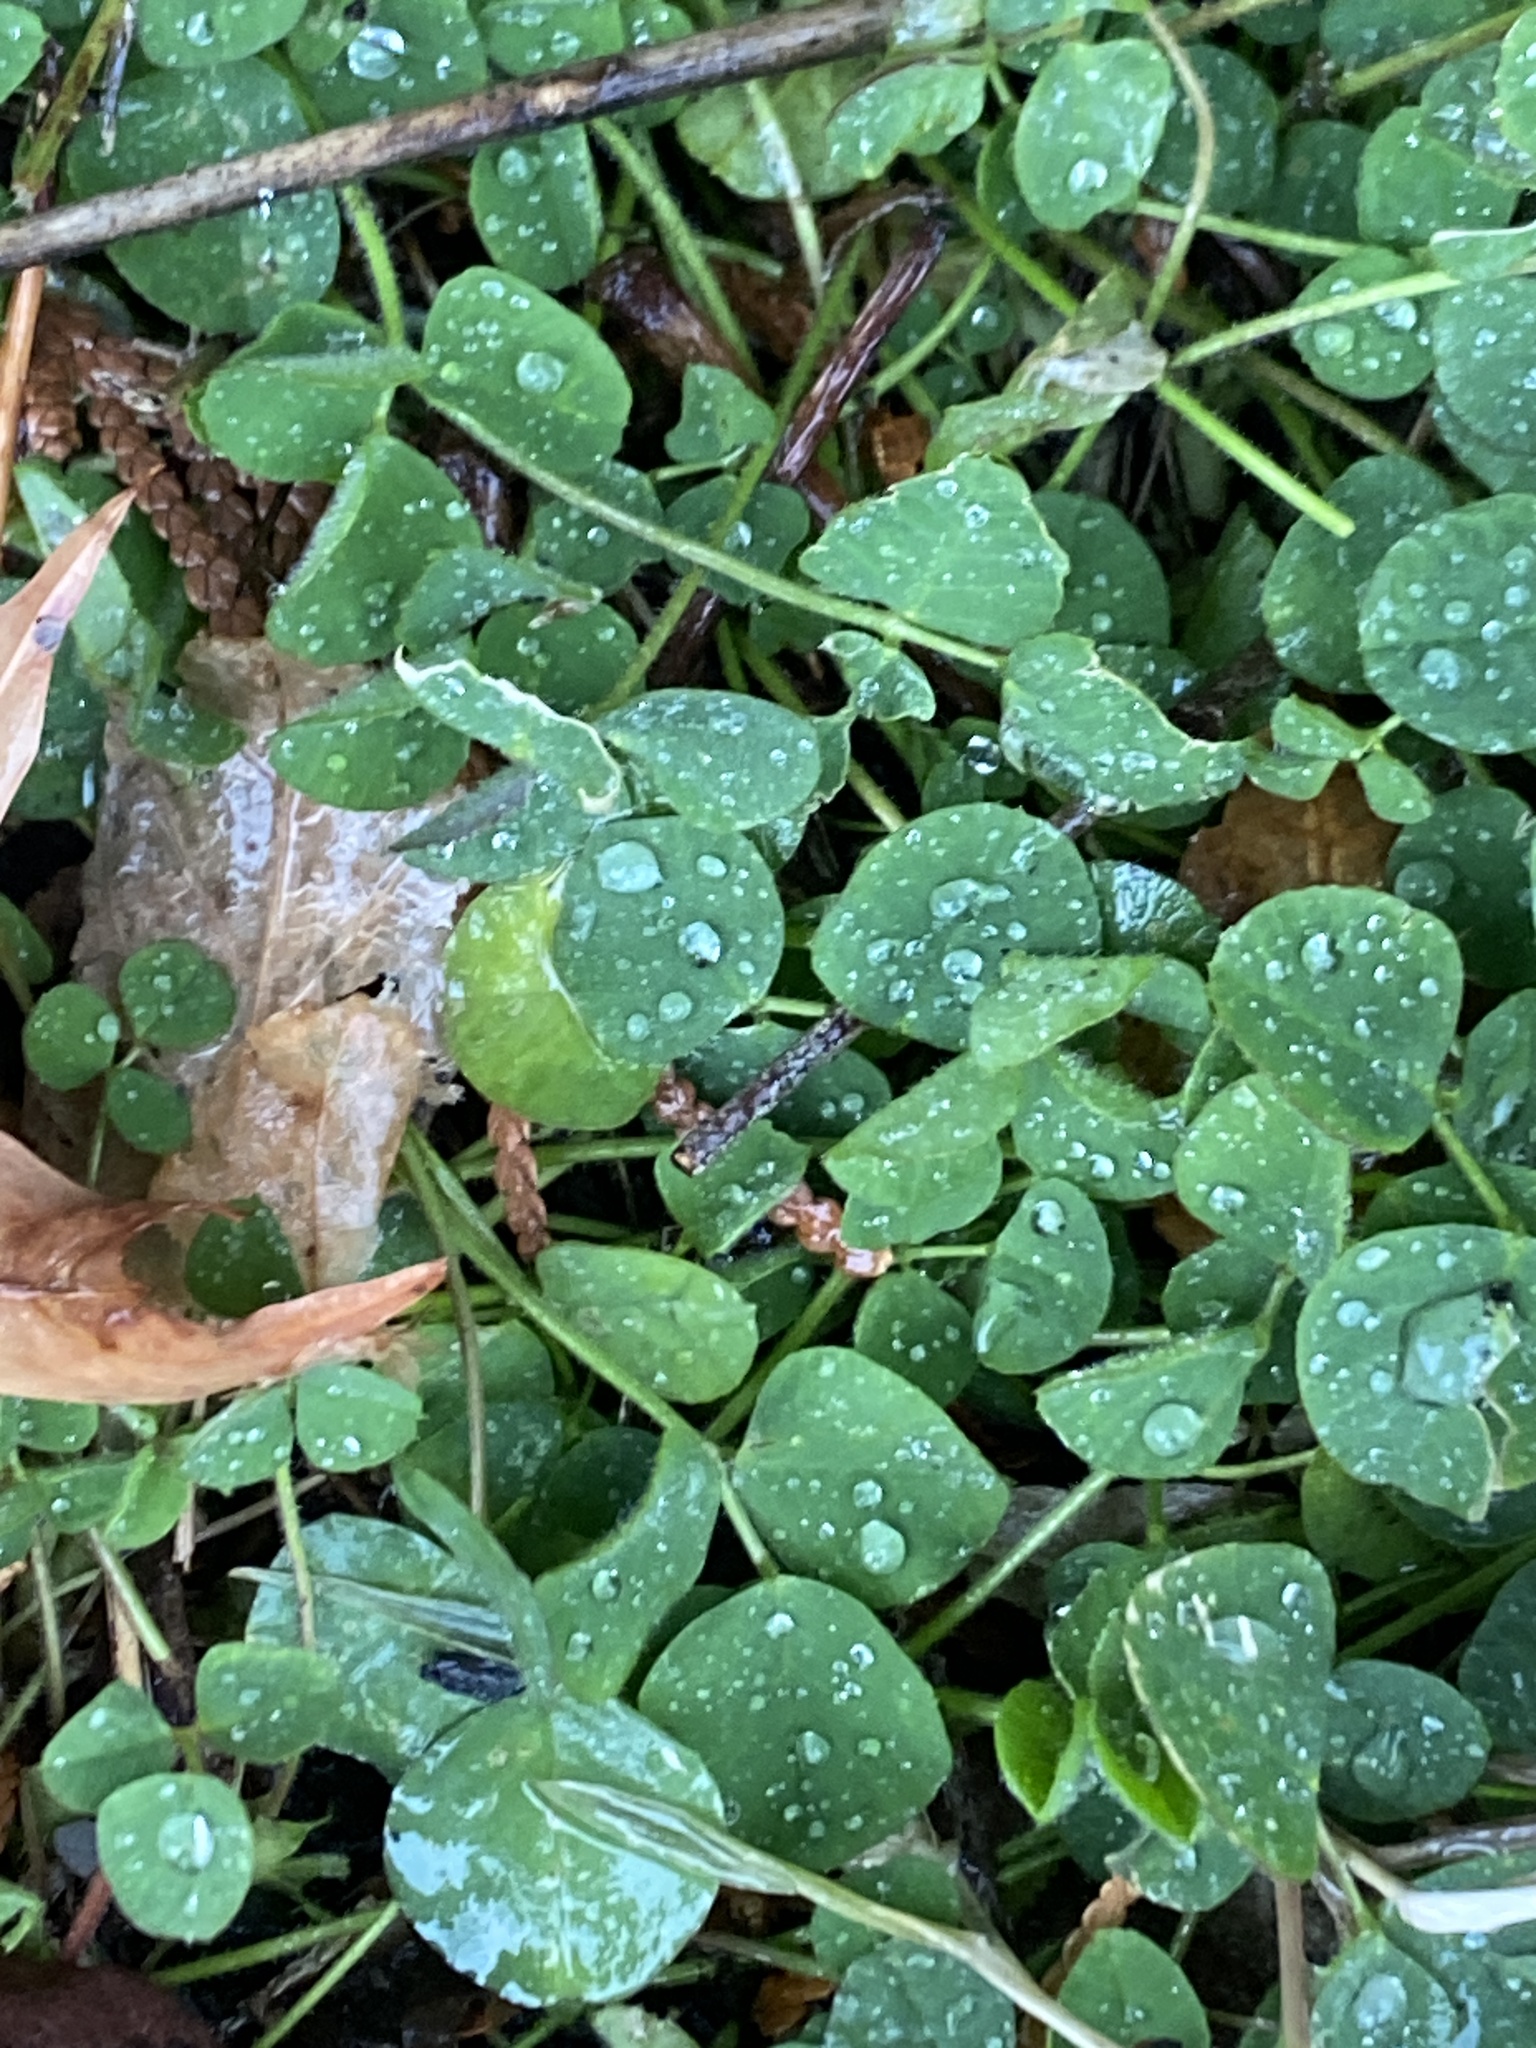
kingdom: Plantae
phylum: Tracheophyta
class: Magnoliopsida
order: Fabales
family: Fabaceae
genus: Medicago
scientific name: Medicago lupulina
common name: Black medick
